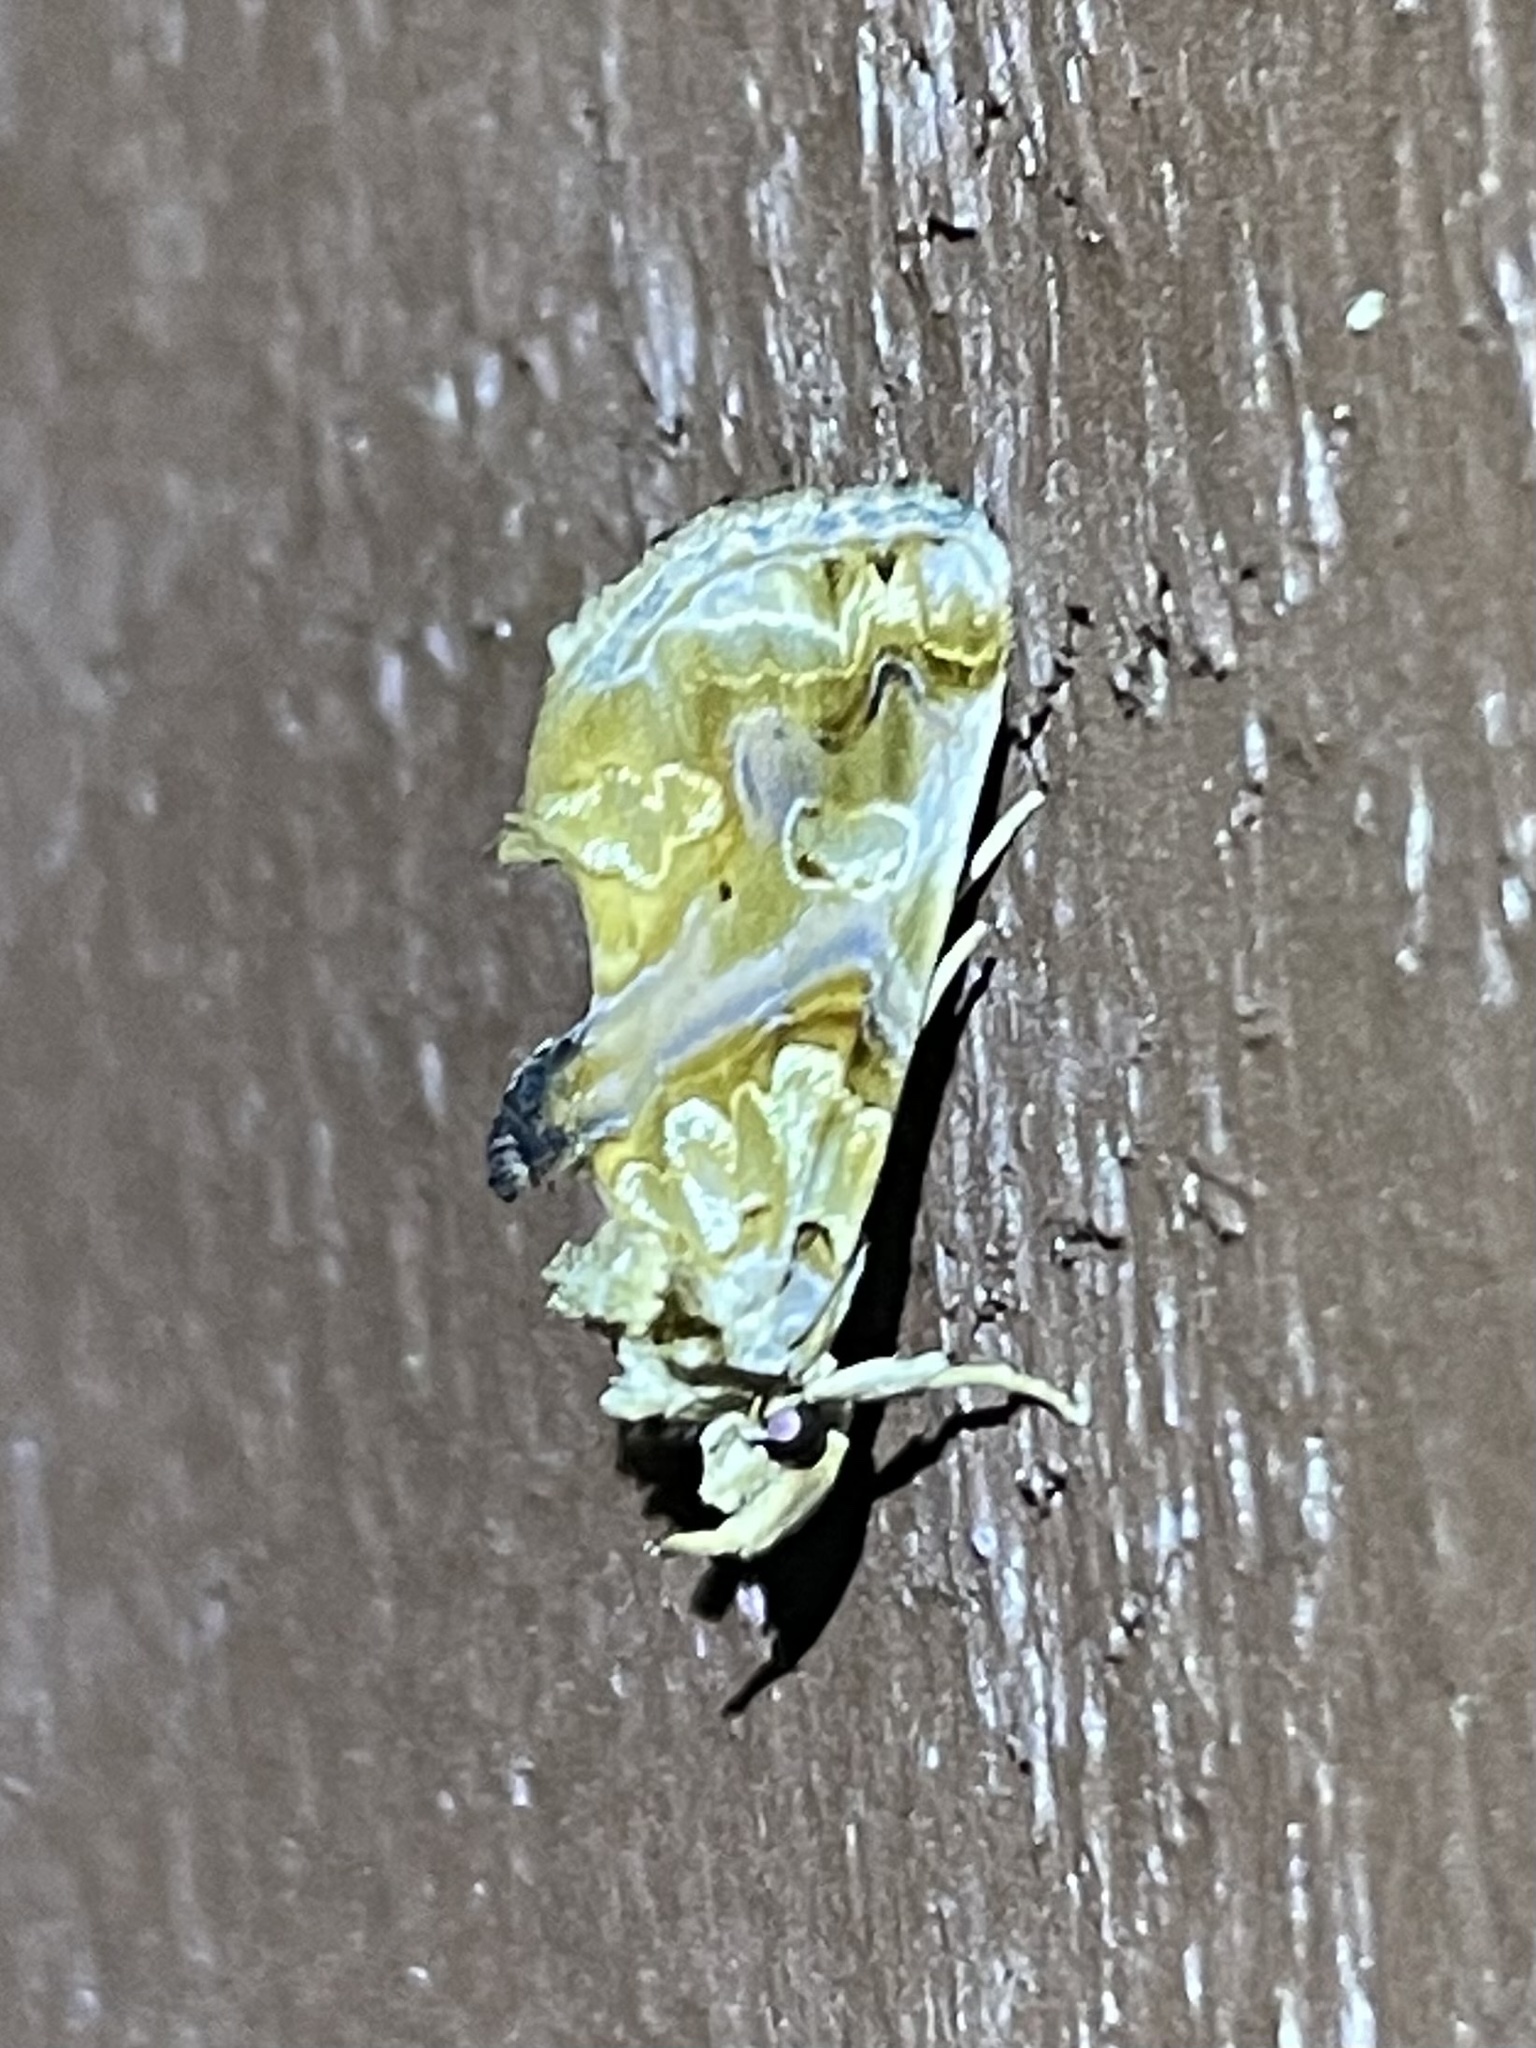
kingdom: Animalia
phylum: Arthropoda
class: Insecta
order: Lepidoptera
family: Erebidae
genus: Plusiodonta
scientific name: Plusiodonta compressipalpis
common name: Moonseed moth
